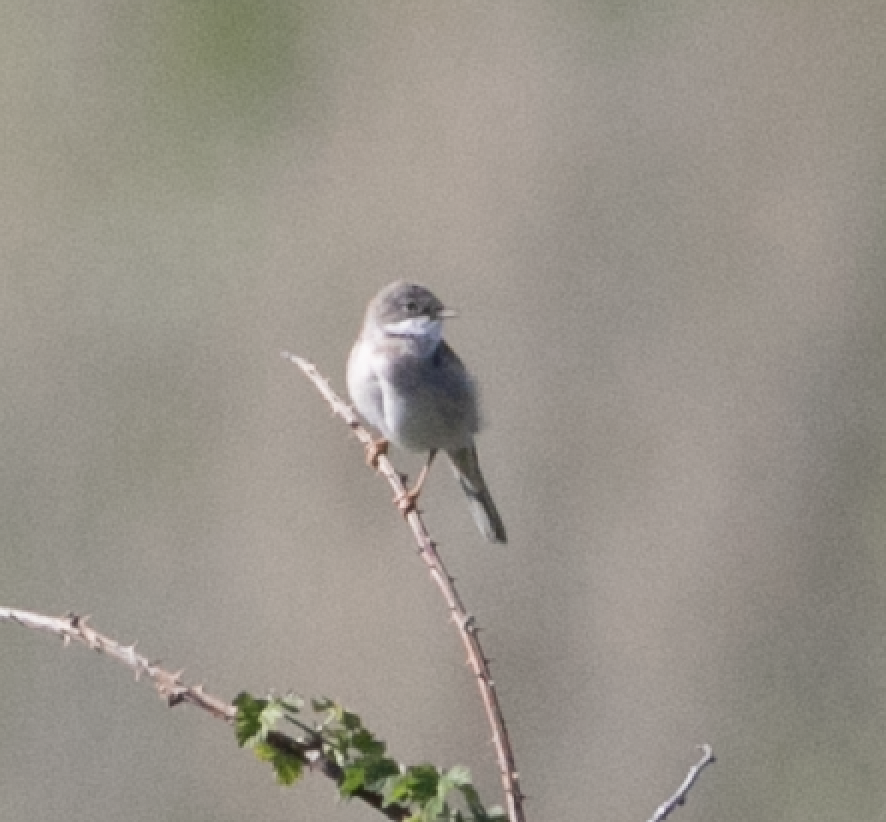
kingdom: Animalia
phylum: Chordata
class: Aves
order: Passeriformes
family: Sylviidae
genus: Sylvia
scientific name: Sylvia communis
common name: Common whitethroat
